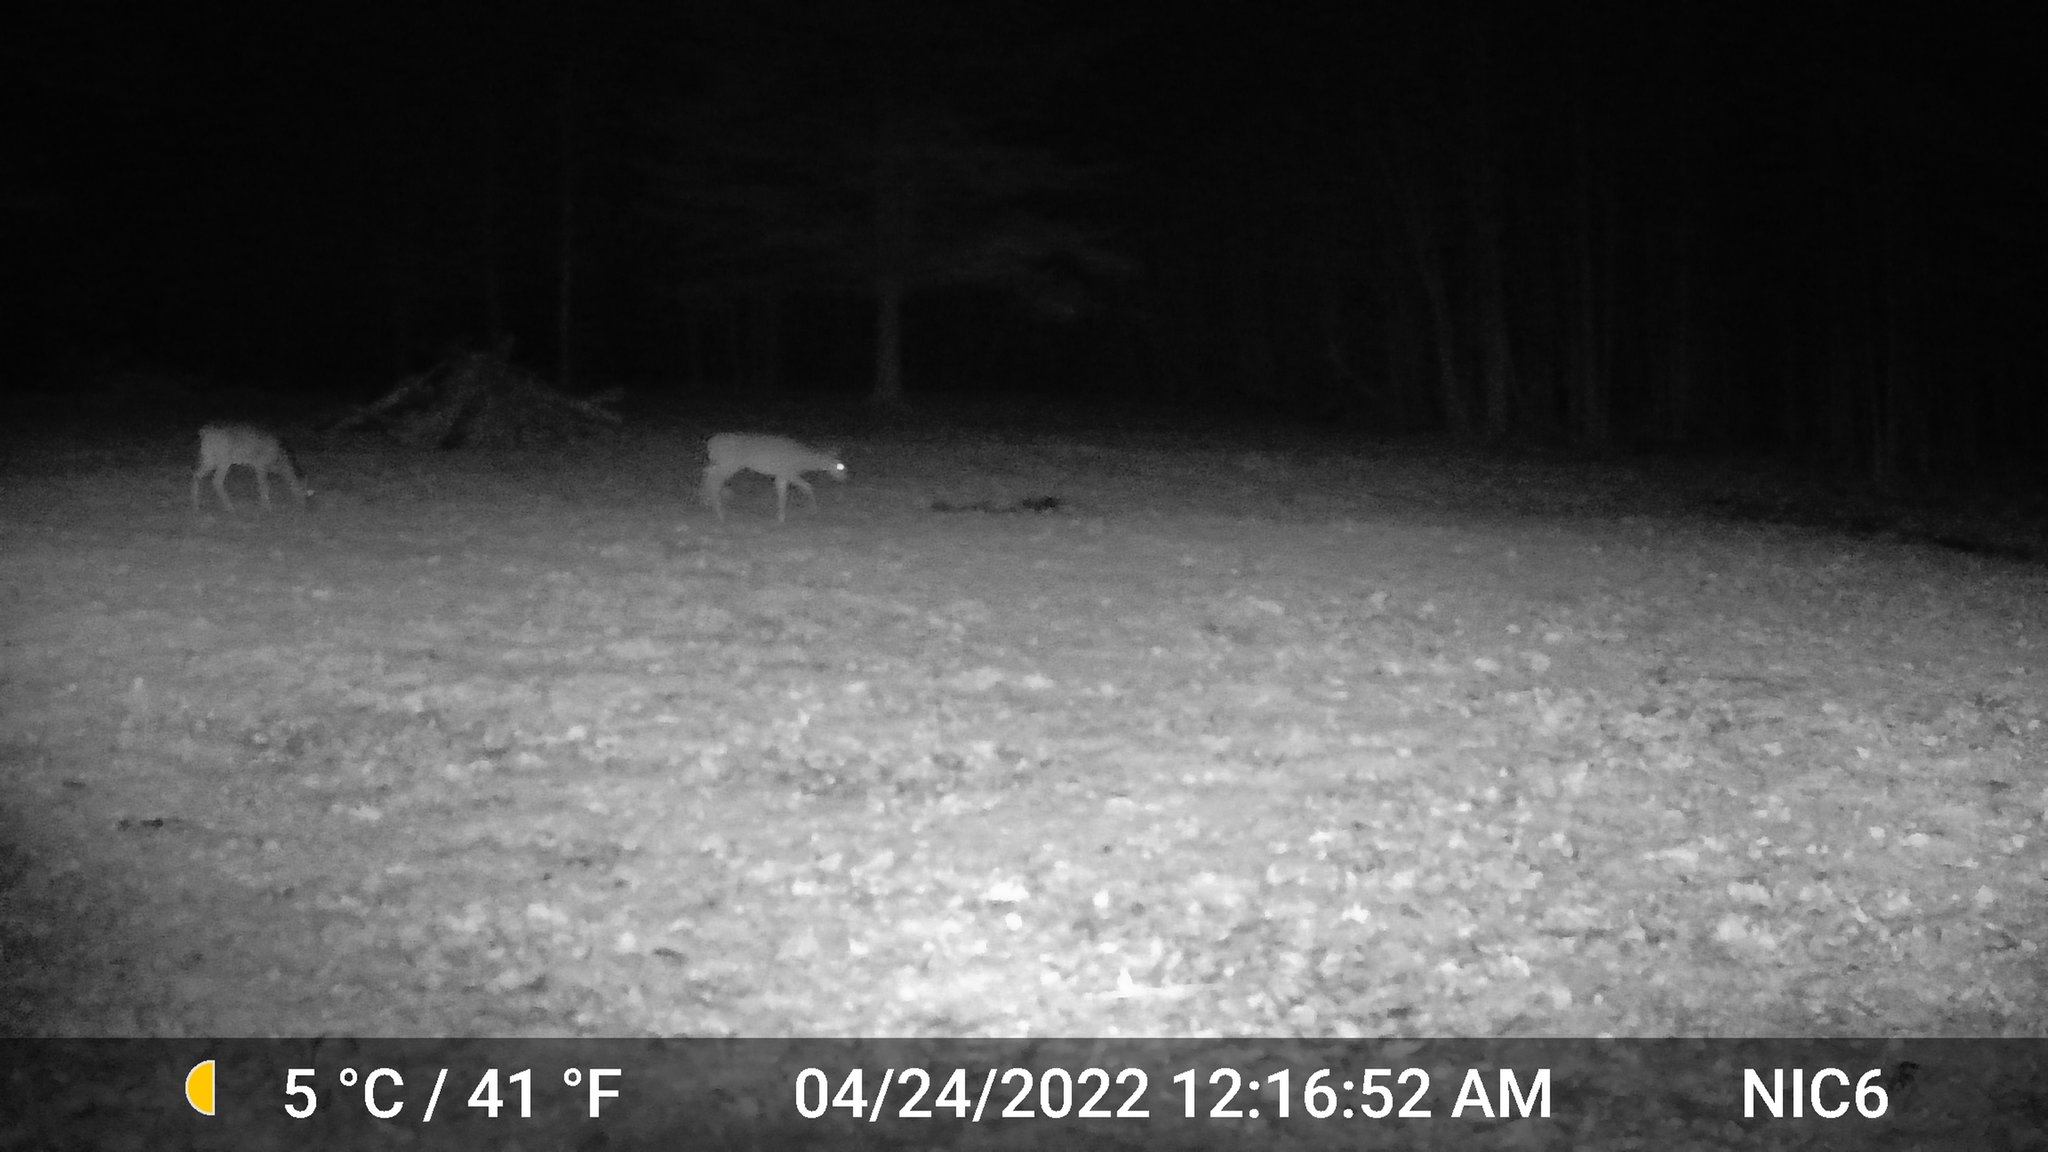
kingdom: Animalia
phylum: Chordata
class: Mammalia
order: Artiodactyla
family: Cervidae
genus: Odocoileus
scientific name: Odocoileus virginianus
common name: White-tailed deer
